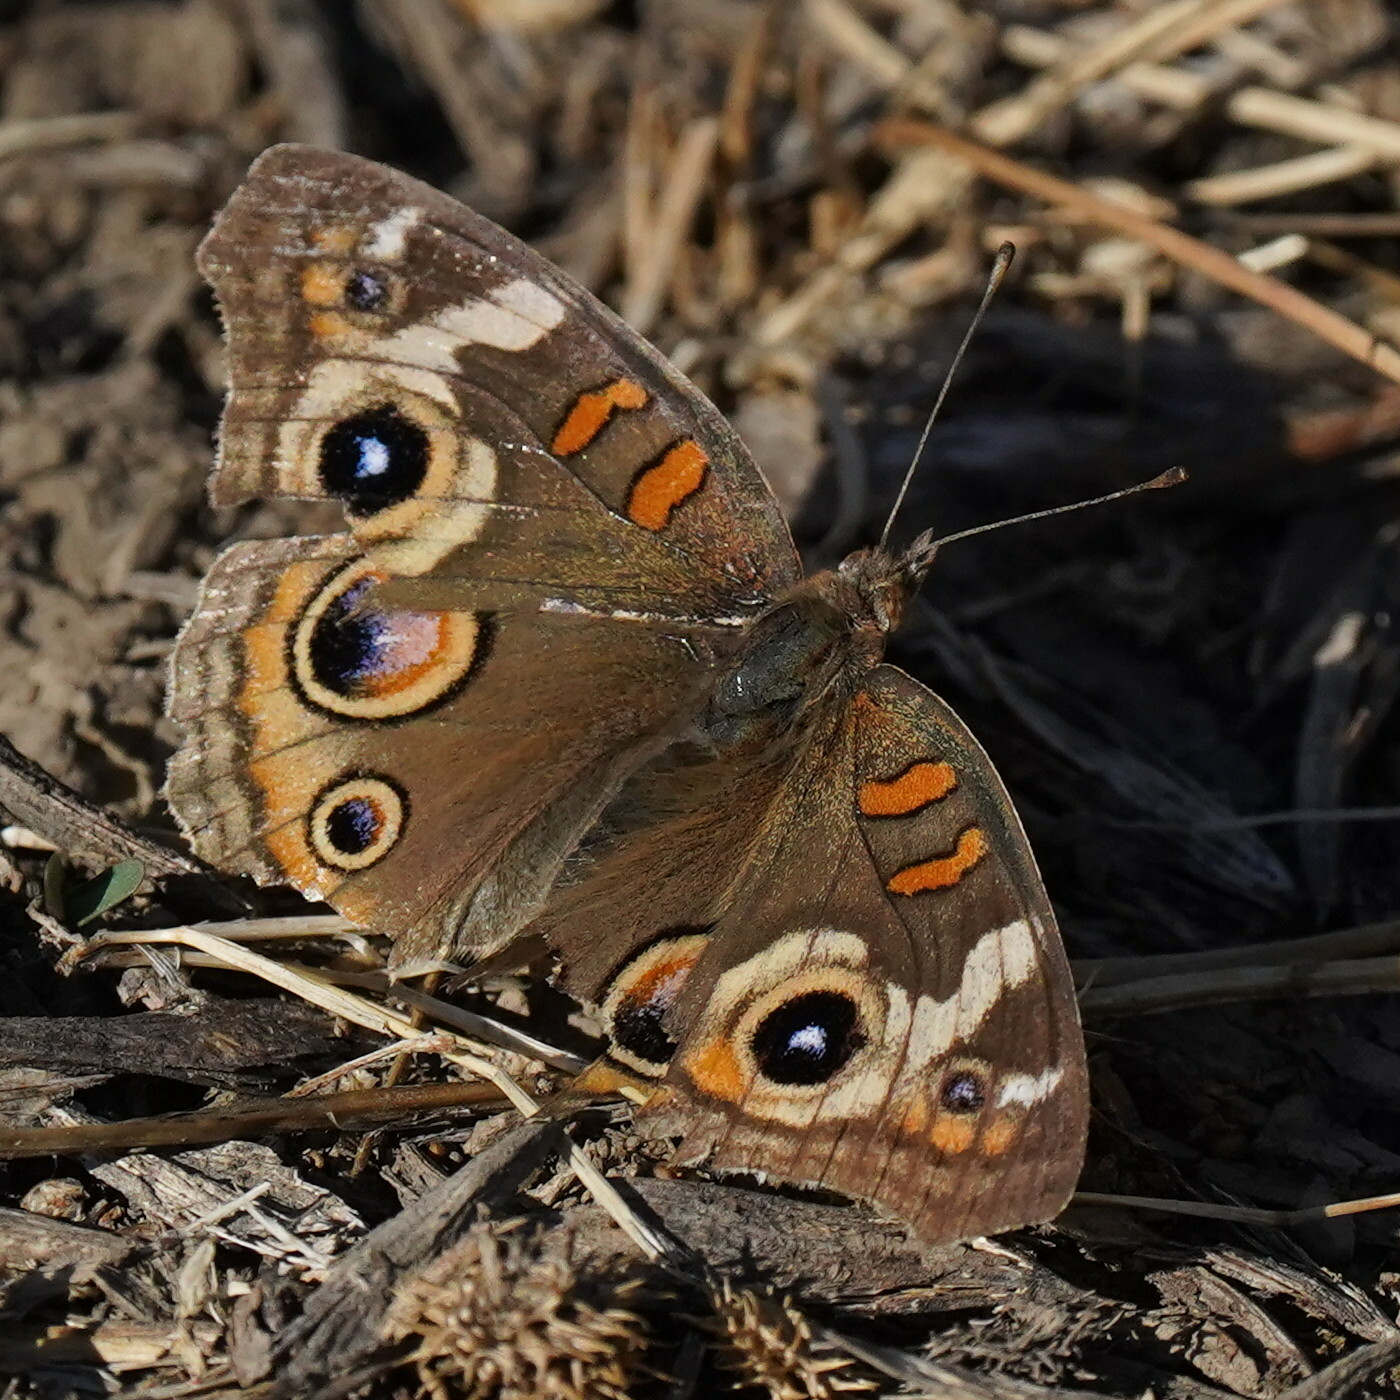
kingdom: Animalia
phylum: Arthropoda
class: Insecta
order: Lepidoptera
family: Nymphalidae
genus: Junonia
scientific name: Junonia grisea
